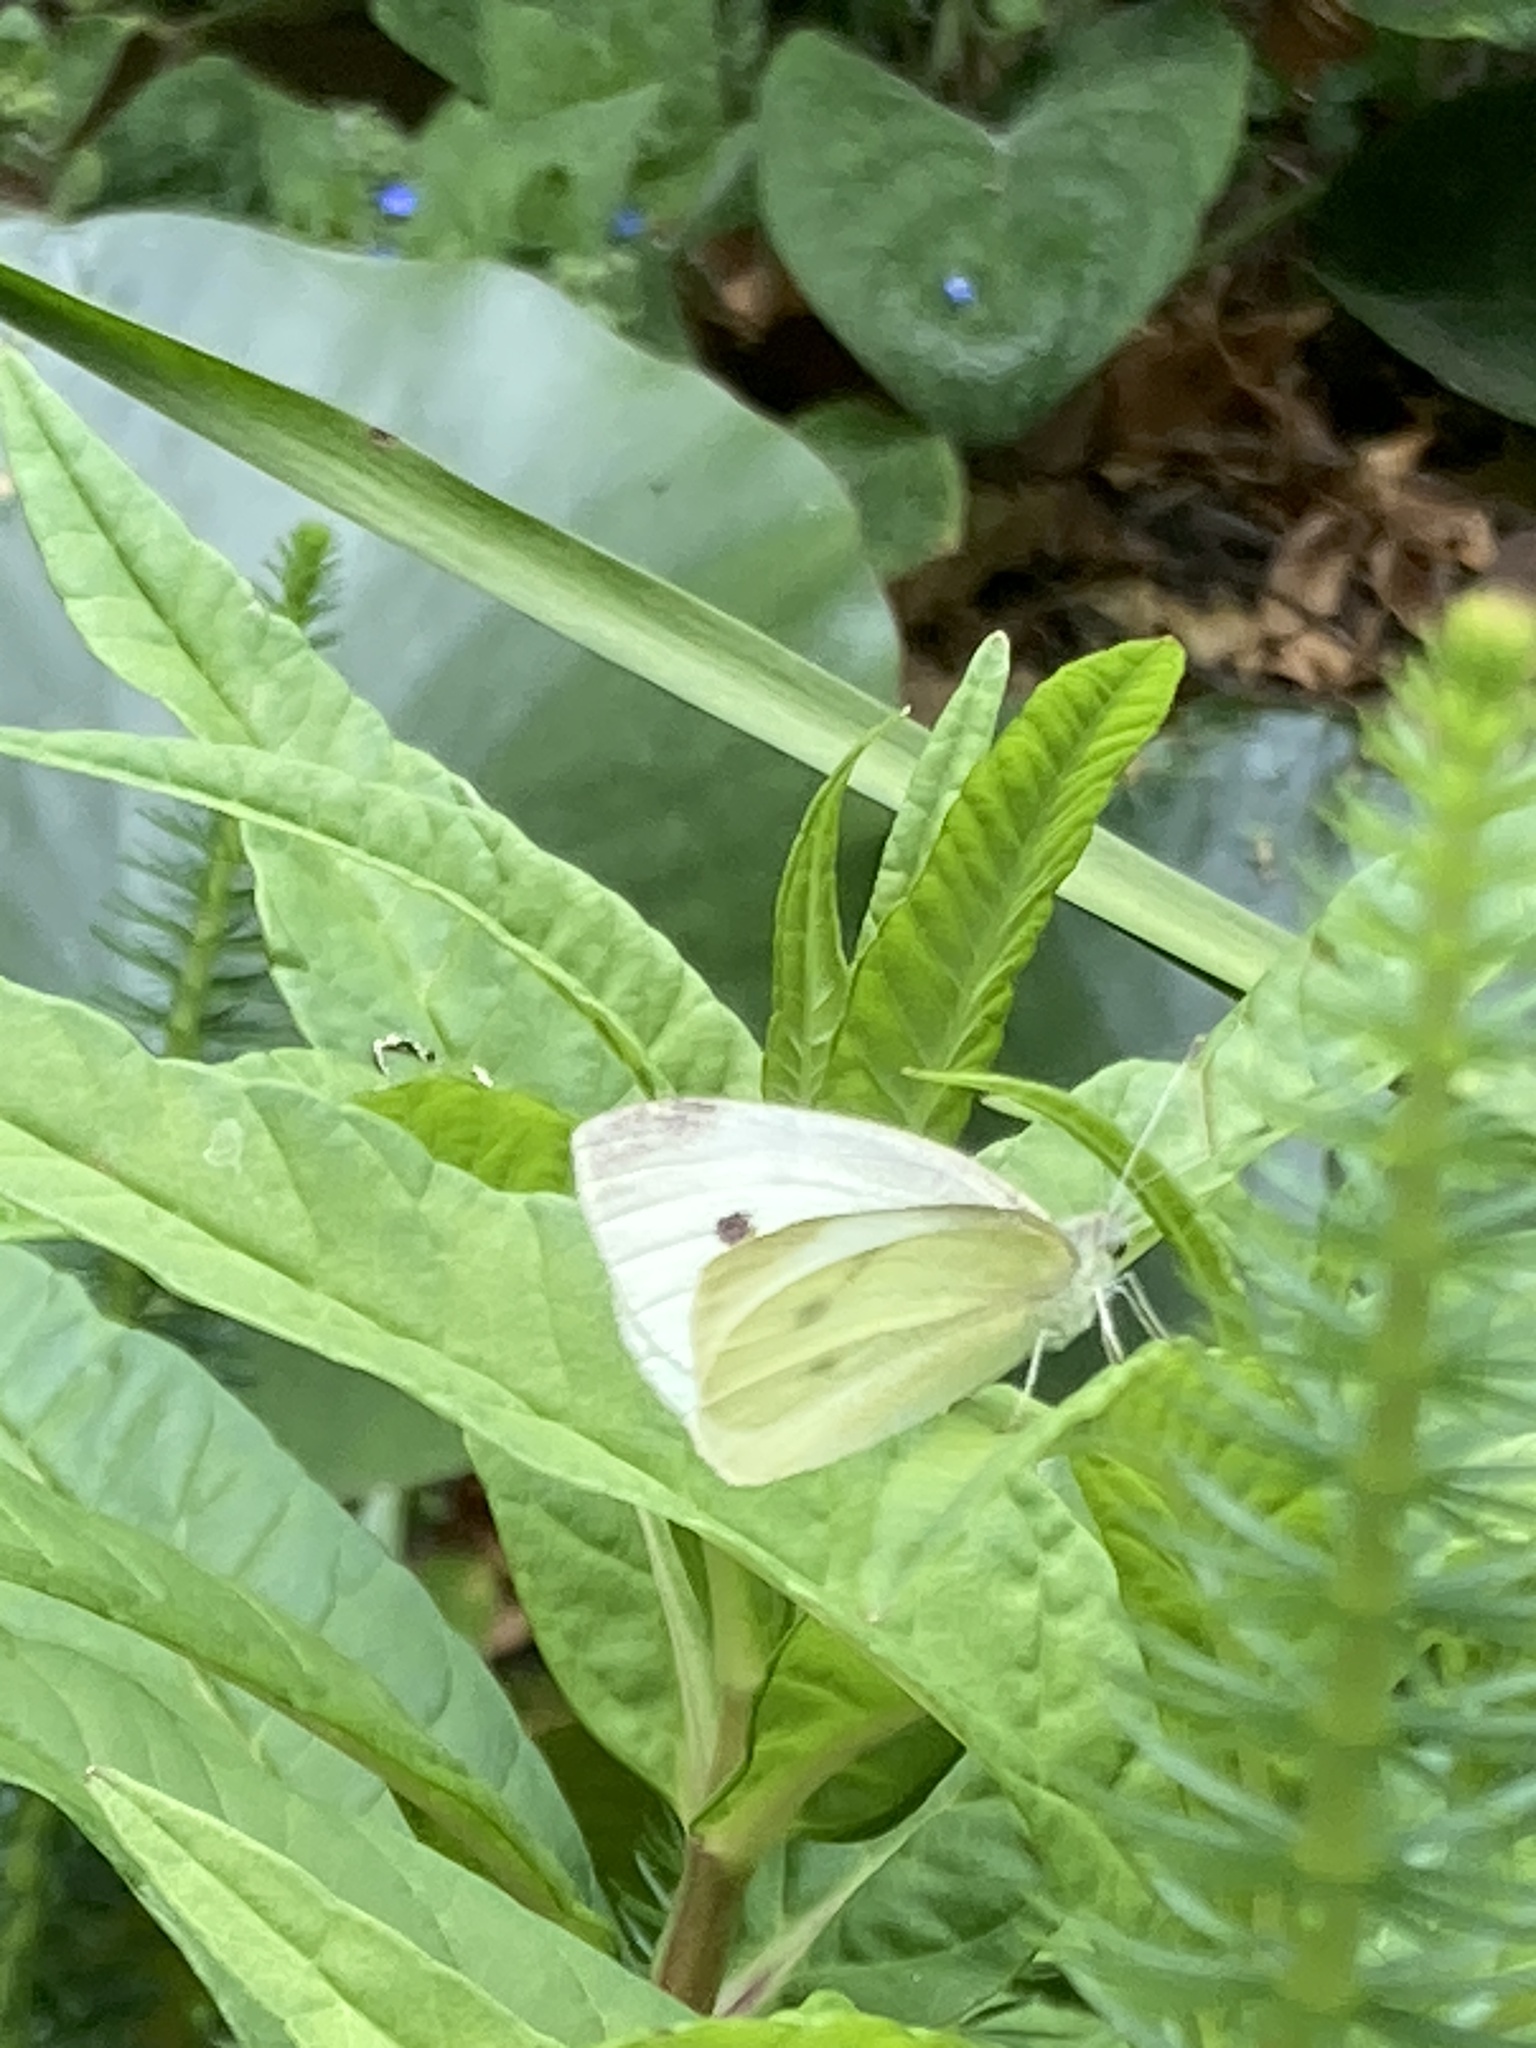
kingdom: Animalia
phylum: Arthropoda
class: Insecta
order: Lepidoptera
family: Pieridae
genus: Pieris
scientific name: Pieris rapae
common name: Small white
